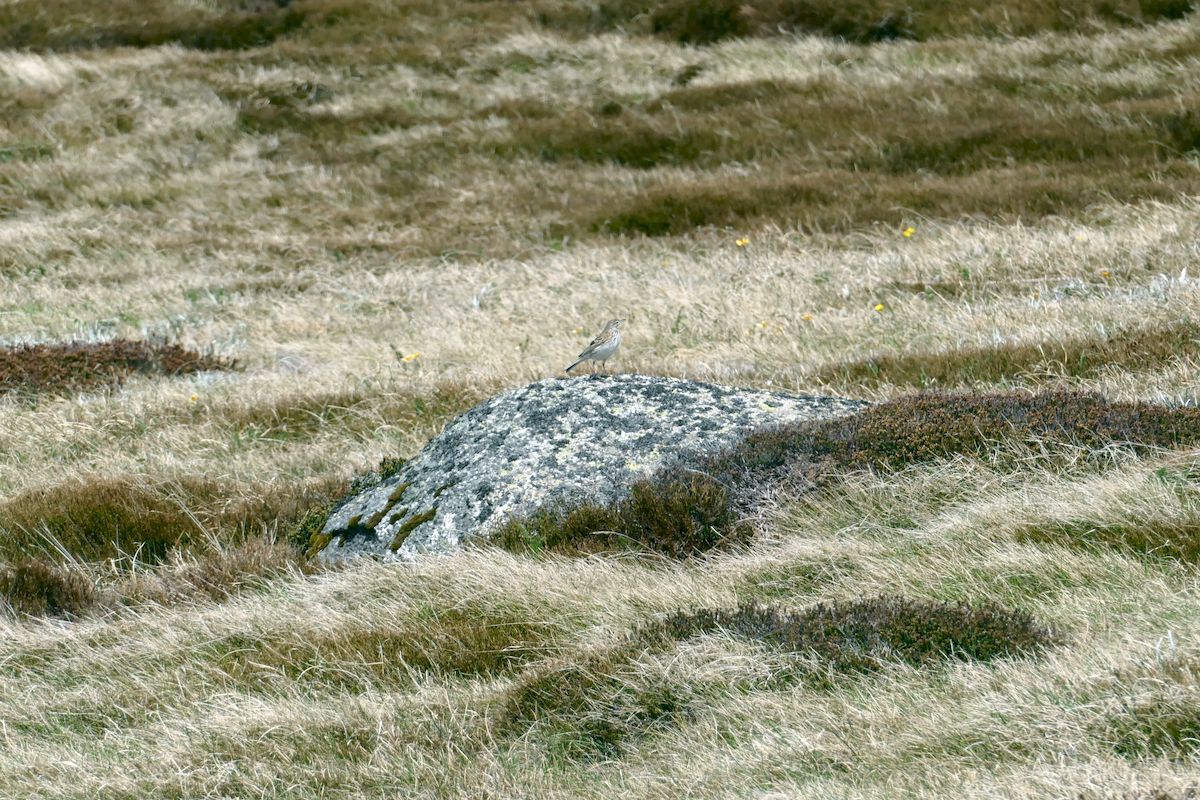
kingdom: Animalia
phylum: Chordata
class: Aves
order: Passeriformes
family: Motacillidae
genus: Anthus
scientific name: Anthus australis
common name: Australian pipit
